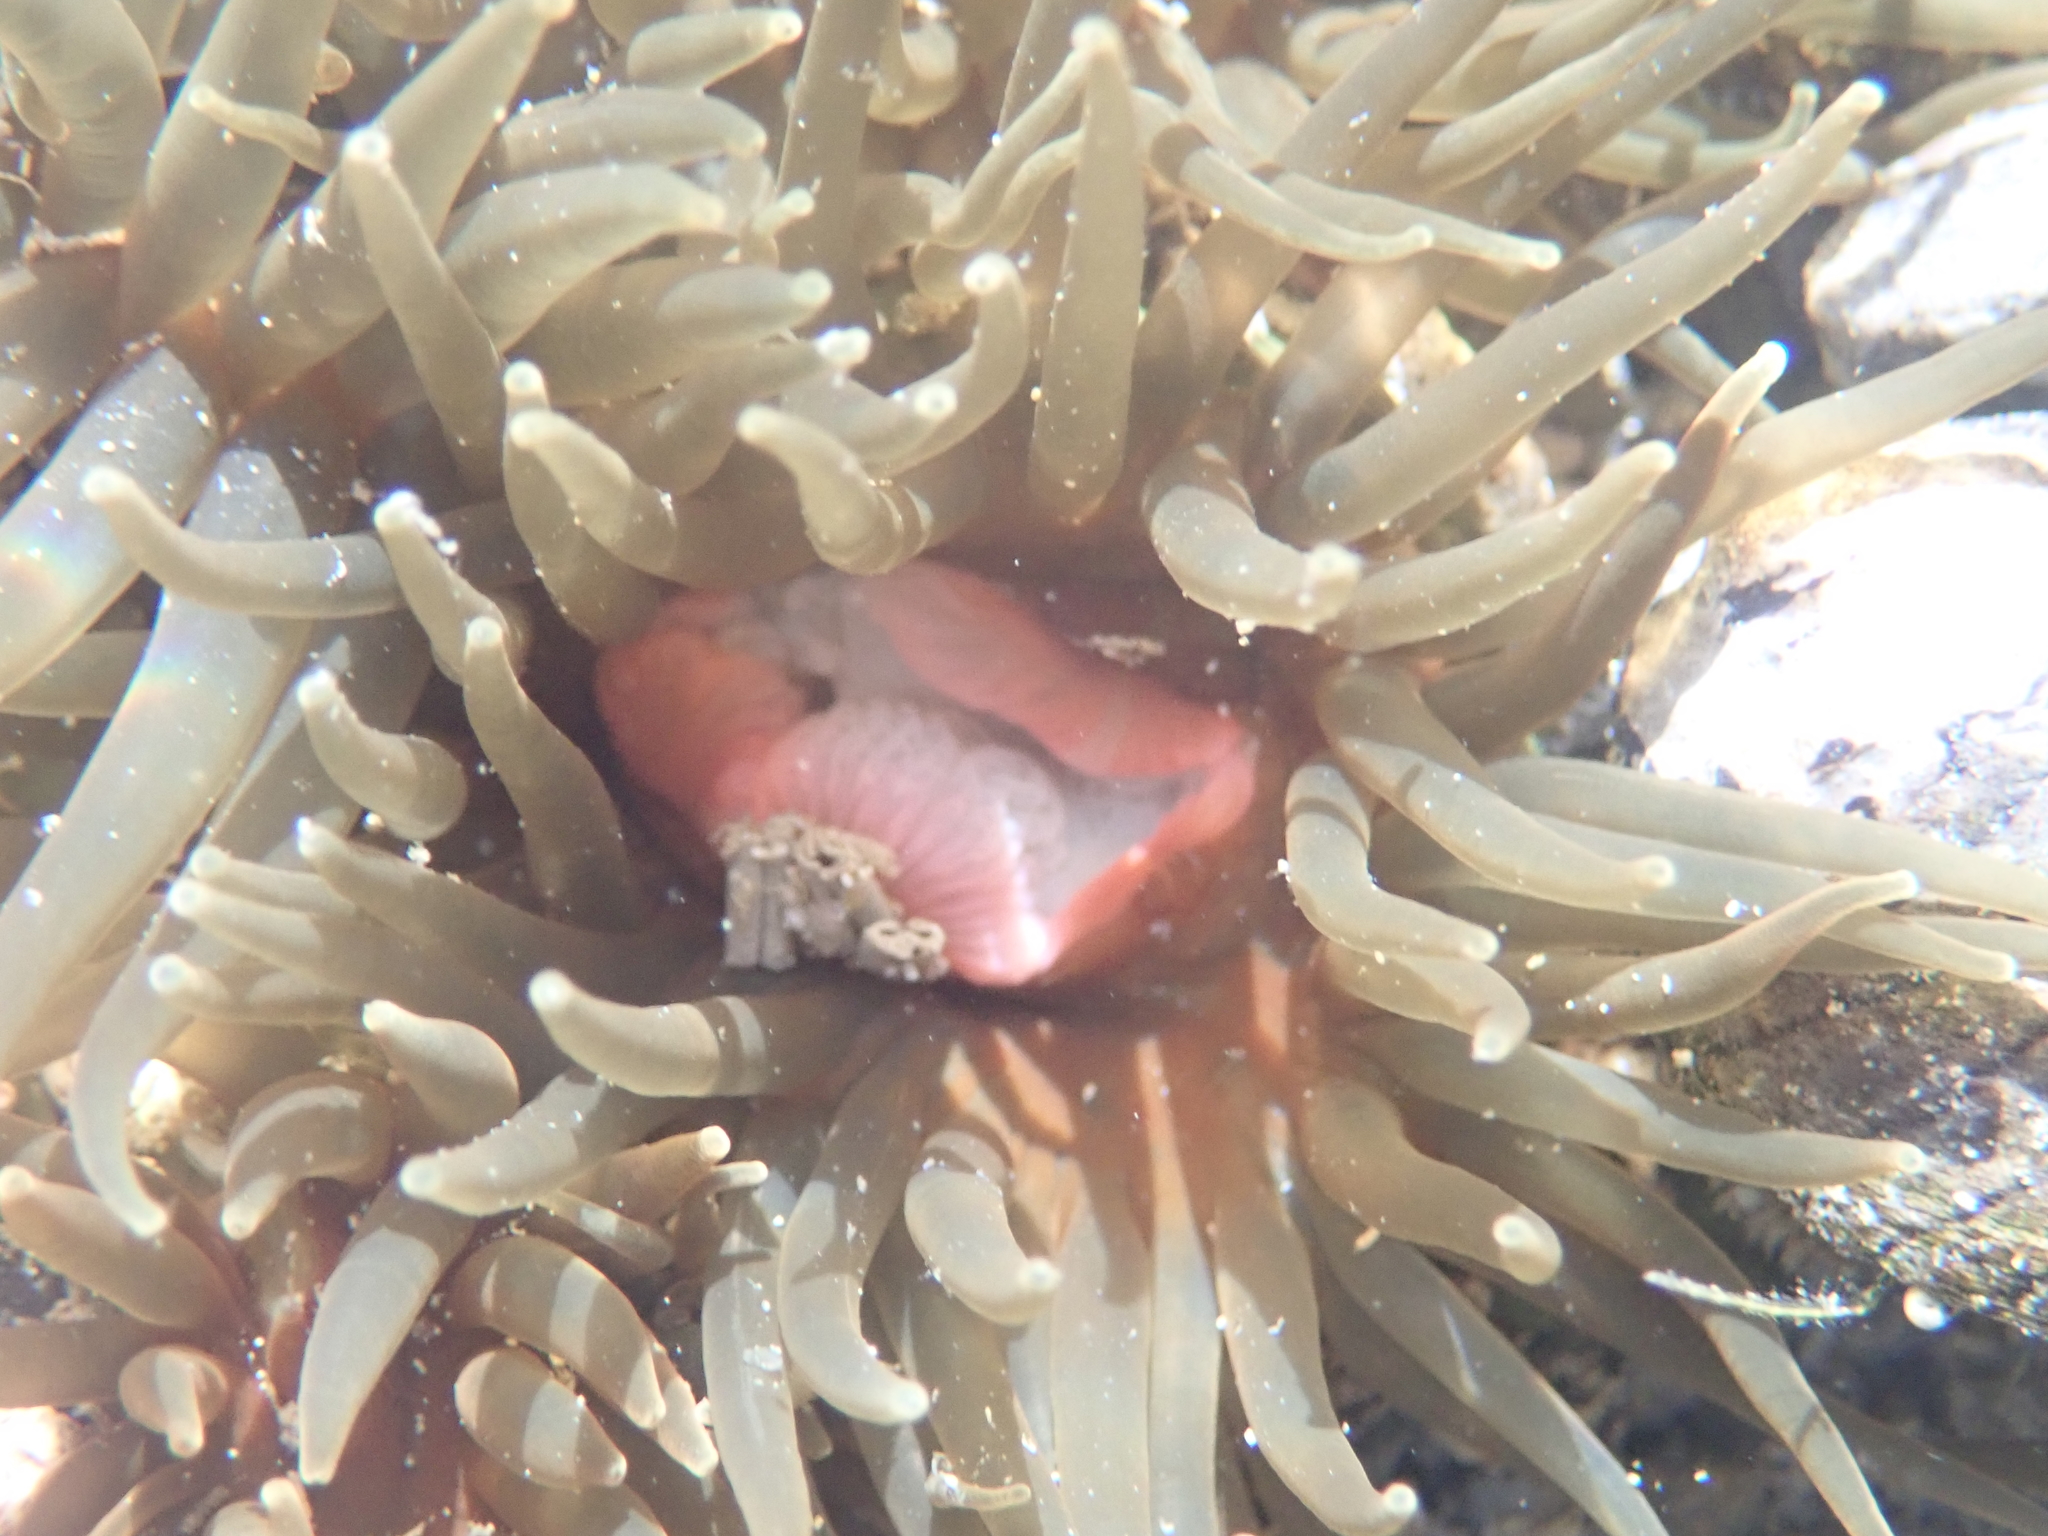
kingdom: Animalia
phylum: Cnidaria
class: Anthozoa
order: Actiniaria
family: Actiniidae
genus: Isactinia
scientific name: Isactinia olivacea
